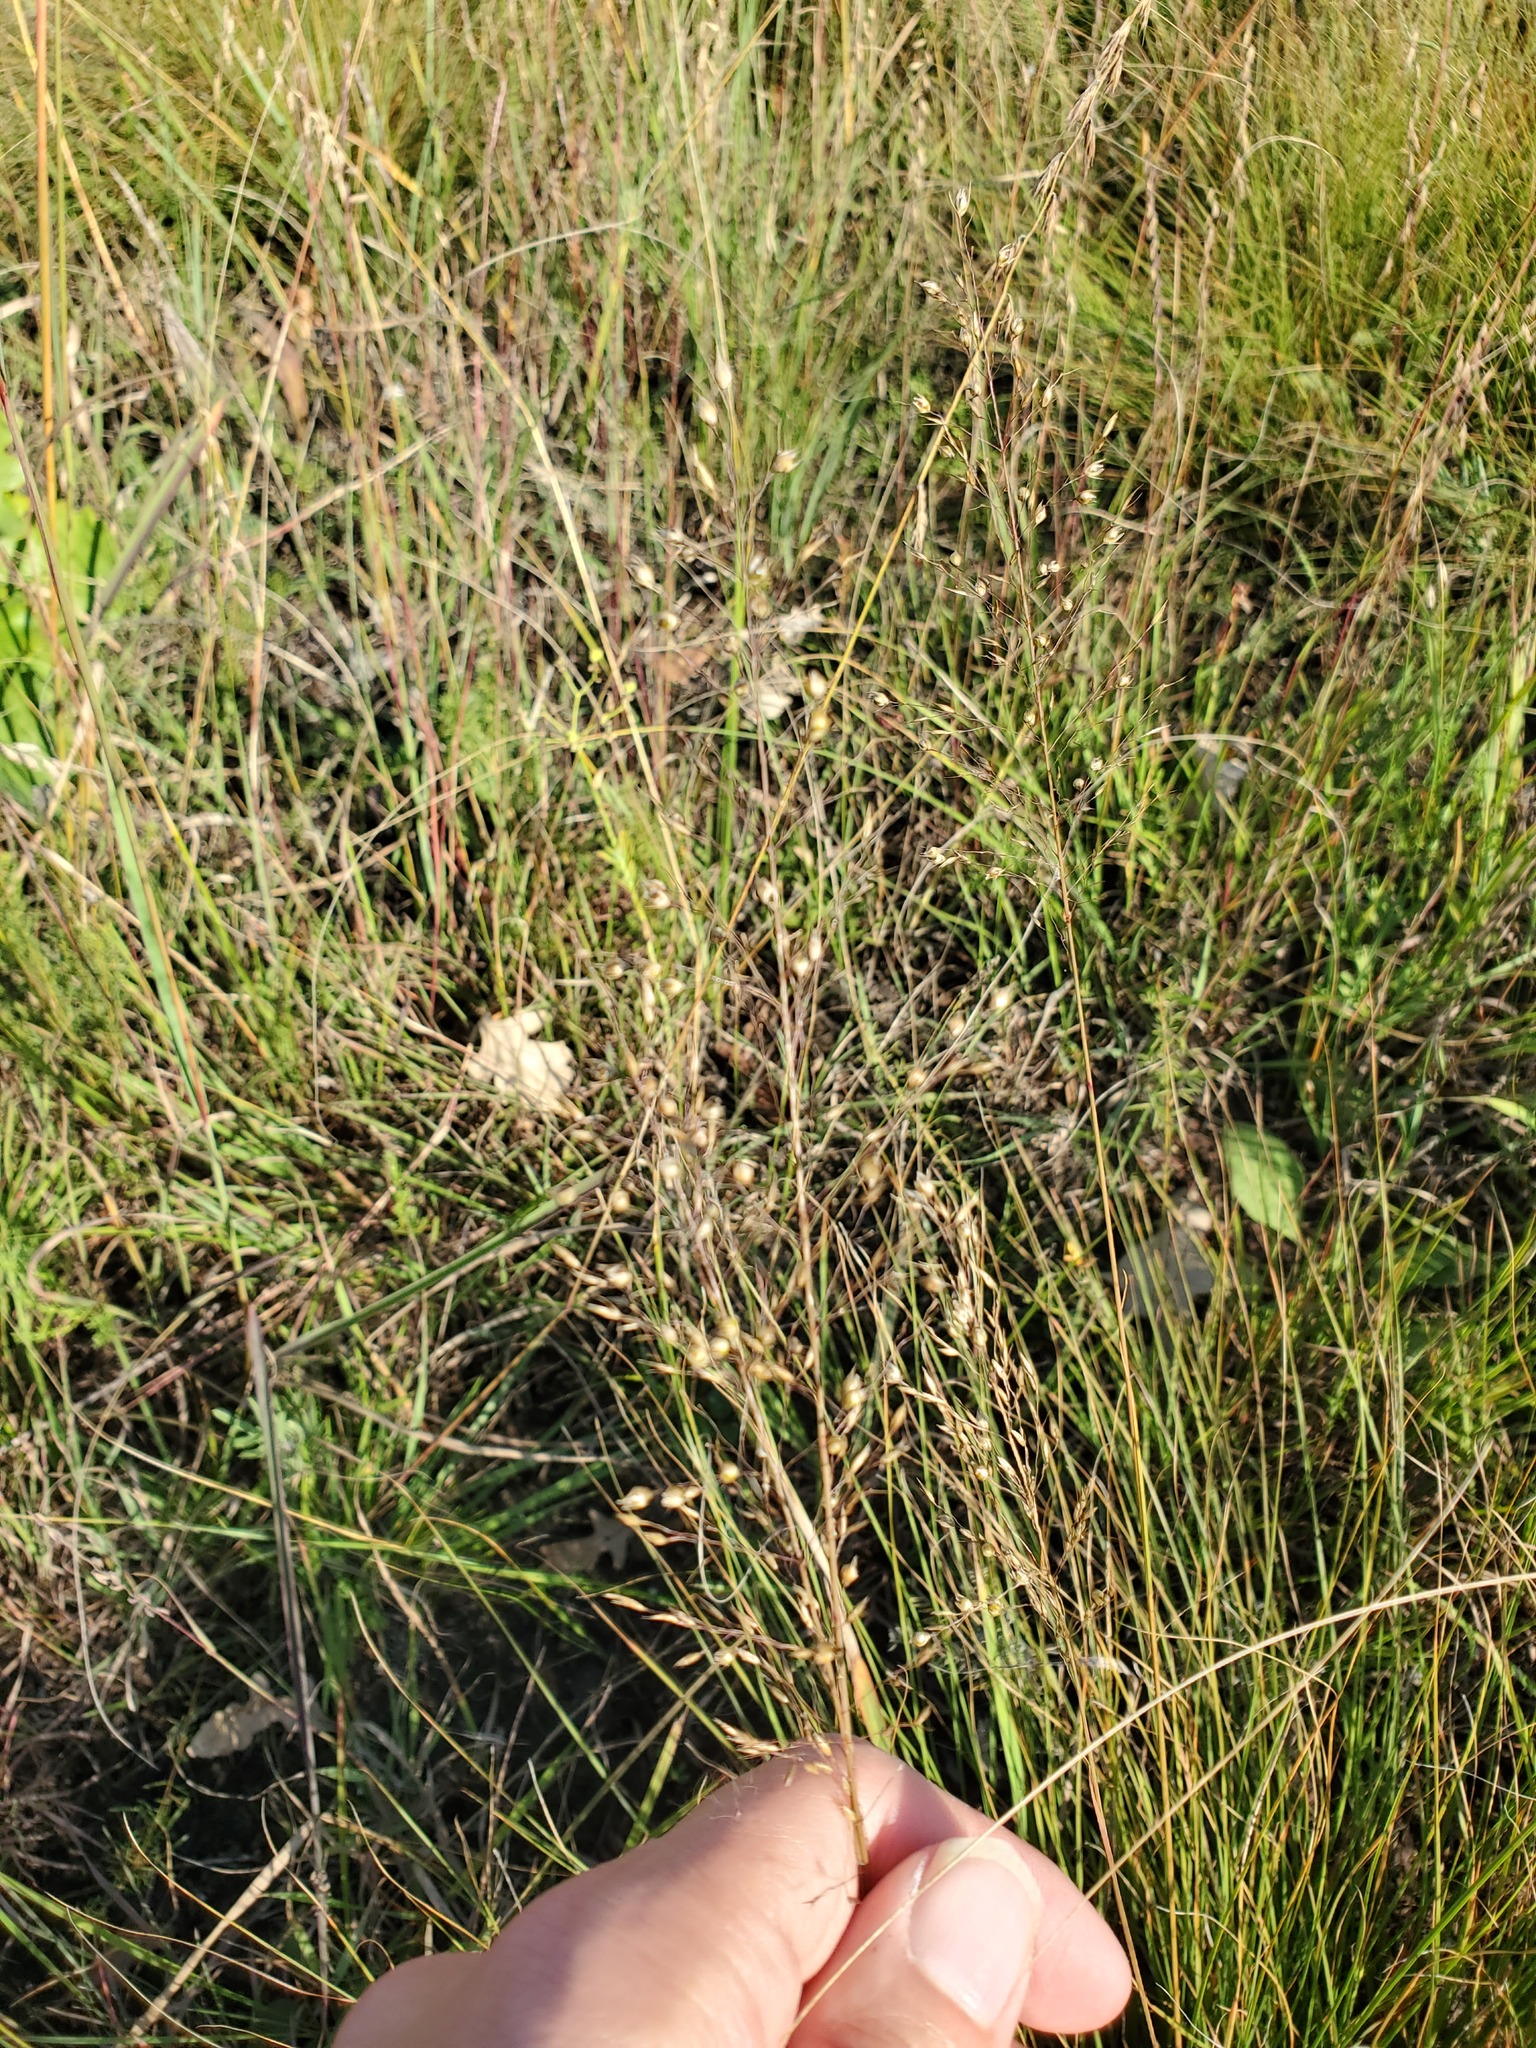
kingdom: Plantae
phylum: Tracheophyta
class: Liliopsida
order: Poales
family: Poaceae
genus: Sporobolus
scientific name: Sporobolus heterolepis
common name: Prairie dropseed
